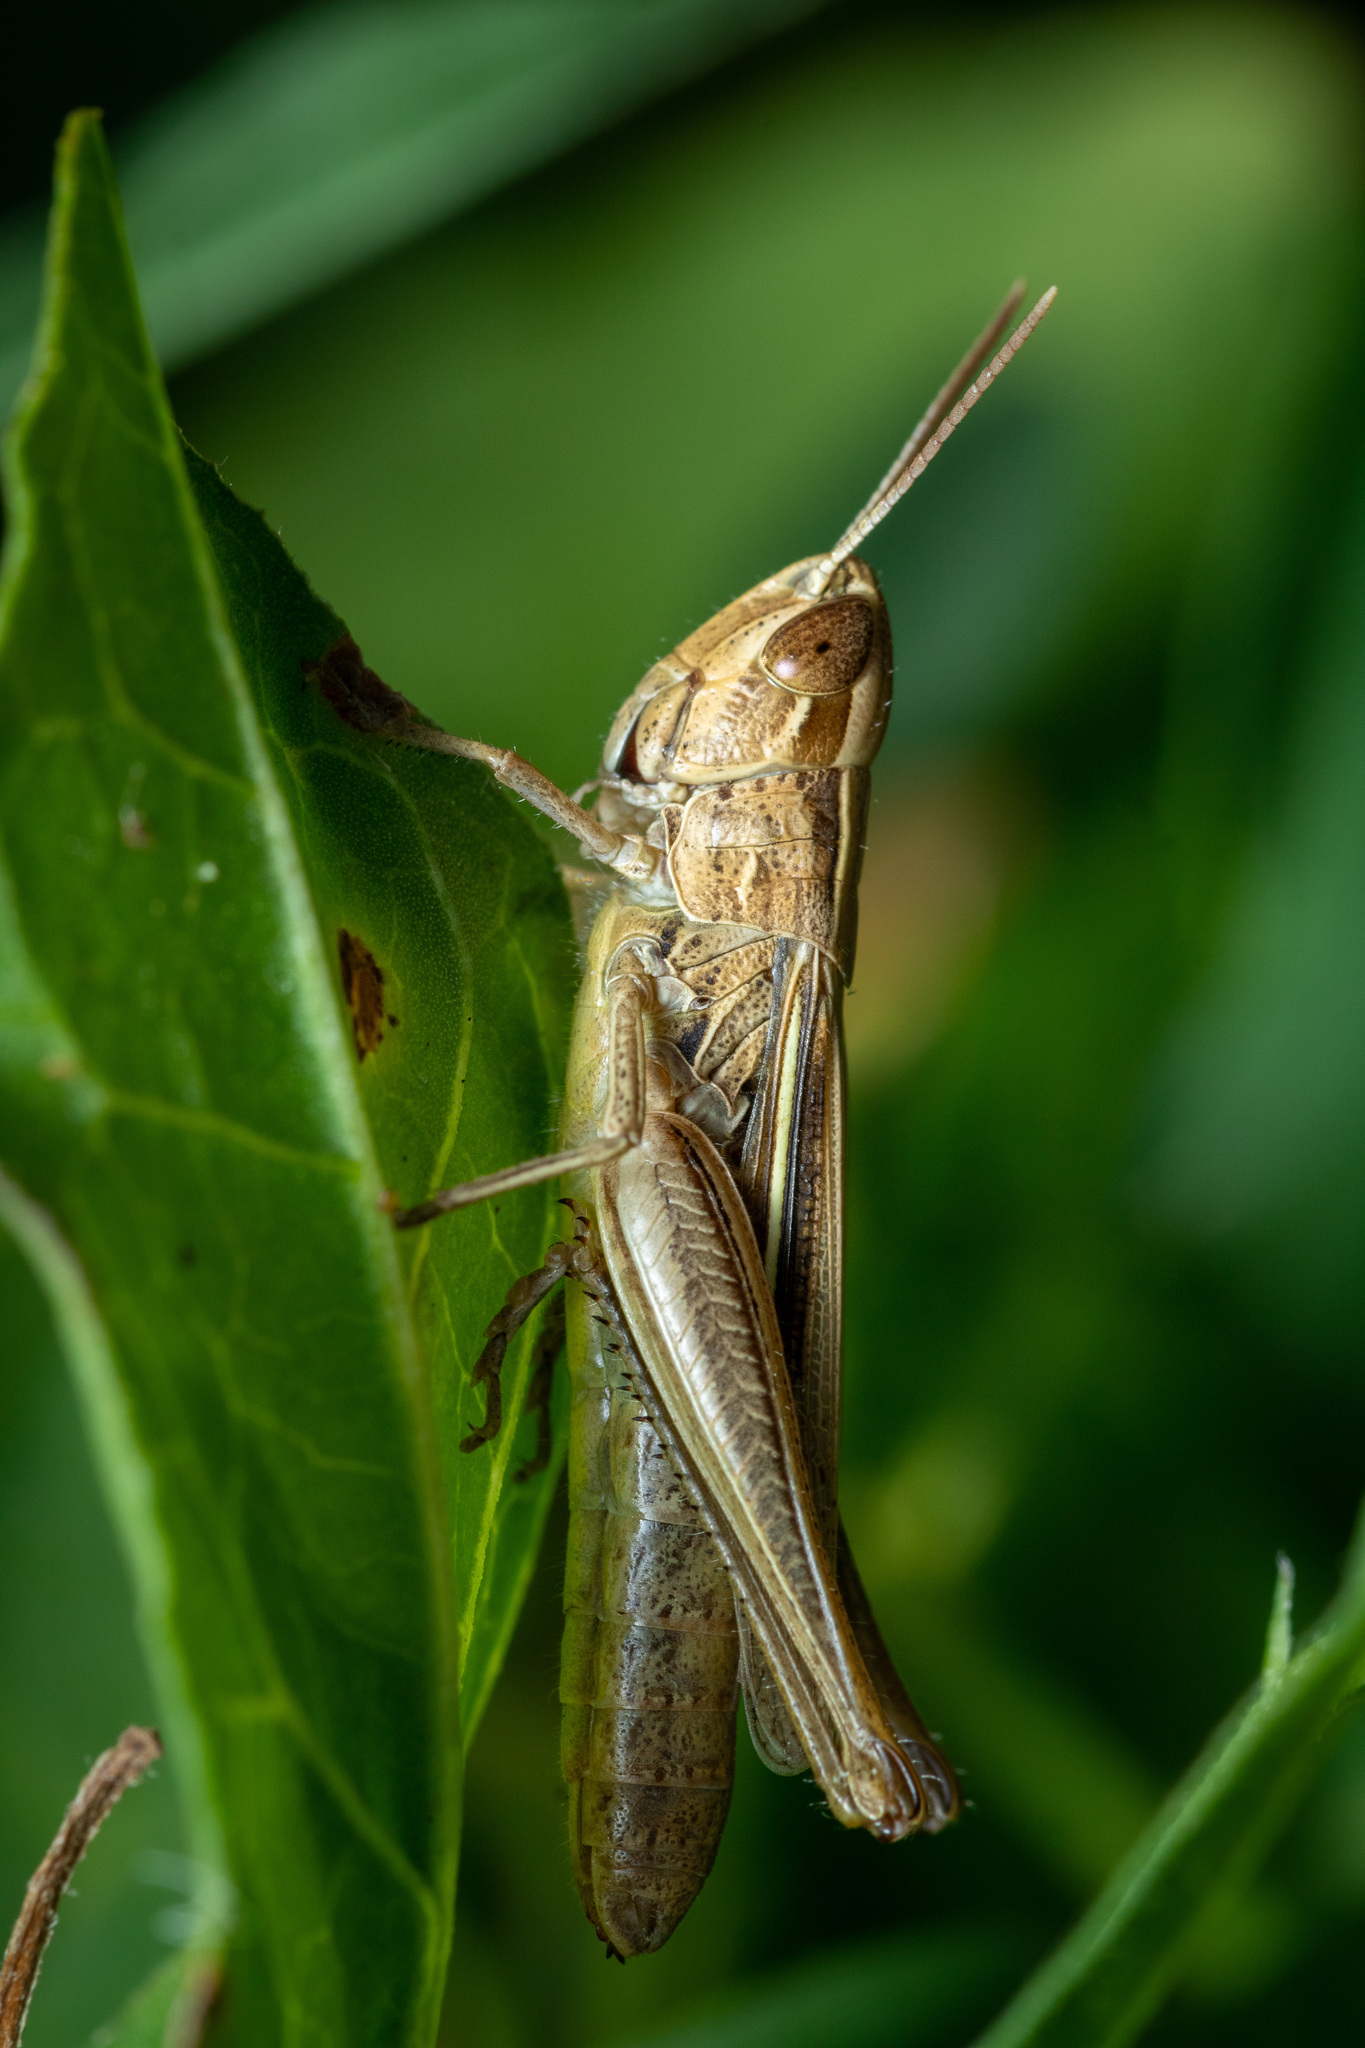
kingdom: Animalia
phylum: Arthropoda
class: Insecta
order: Orthoptera
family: Acrididae
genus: Euchorthippus
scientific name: Euchorthippus elegantulus
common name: Elegant straw grasshopper
